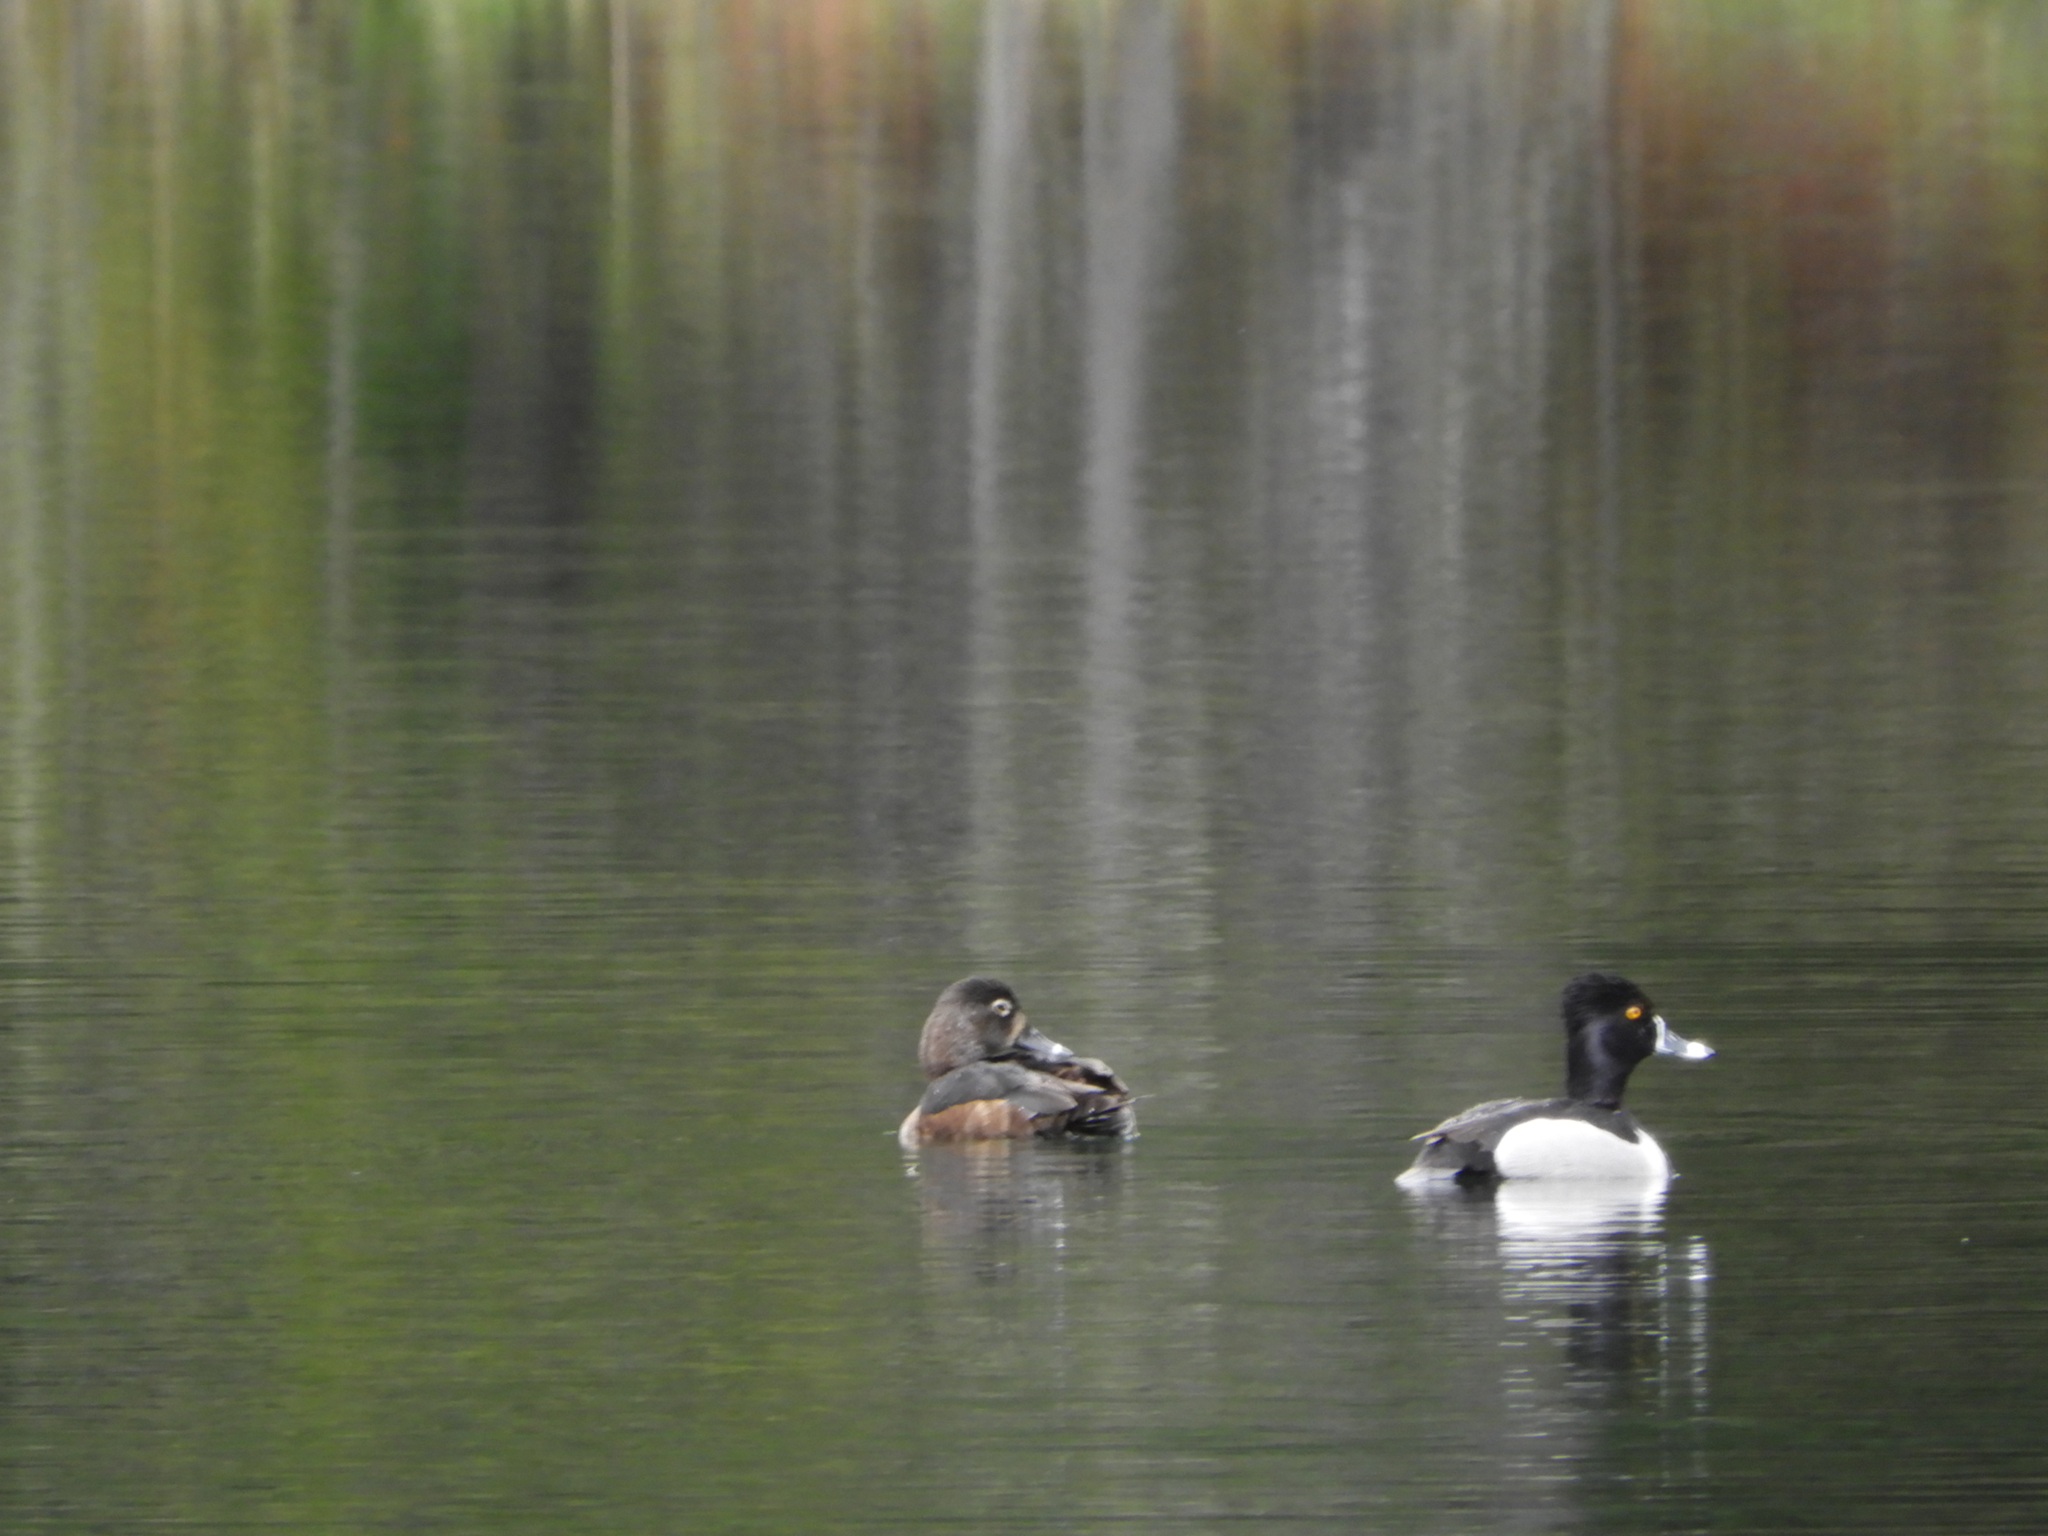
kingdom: Animalia
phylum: Chordata
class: Aves
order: Anseriformes
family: Anatidae
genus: Aythya
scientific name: Aythya collaris
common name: Ring-necked duck
